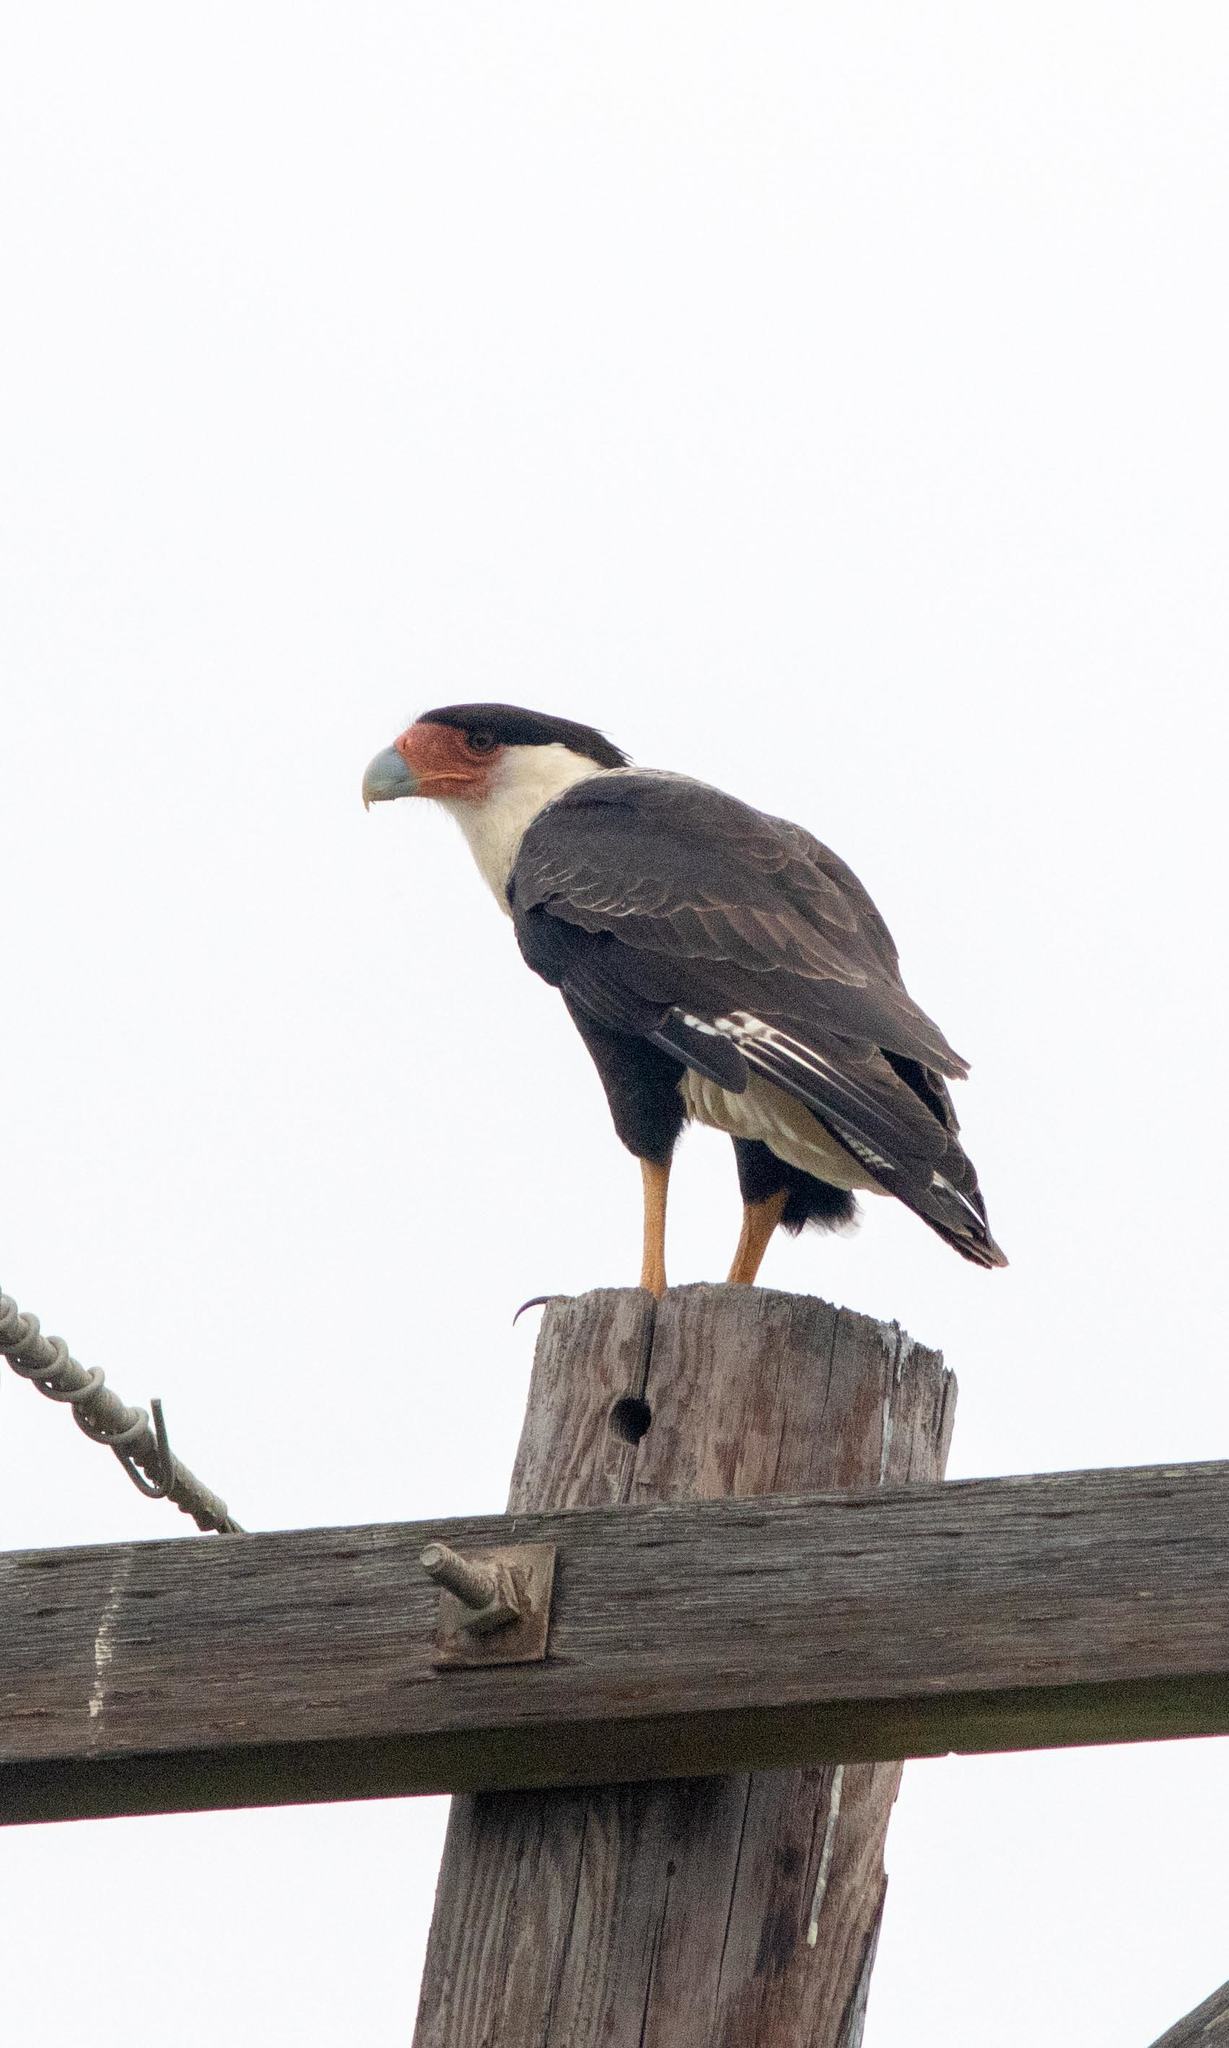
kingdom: Animalia
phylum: Chordata
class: Aves
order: Falconiformes
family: Falconidae
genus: Caracara
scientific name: Caracara plancus
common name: Southern caracara
